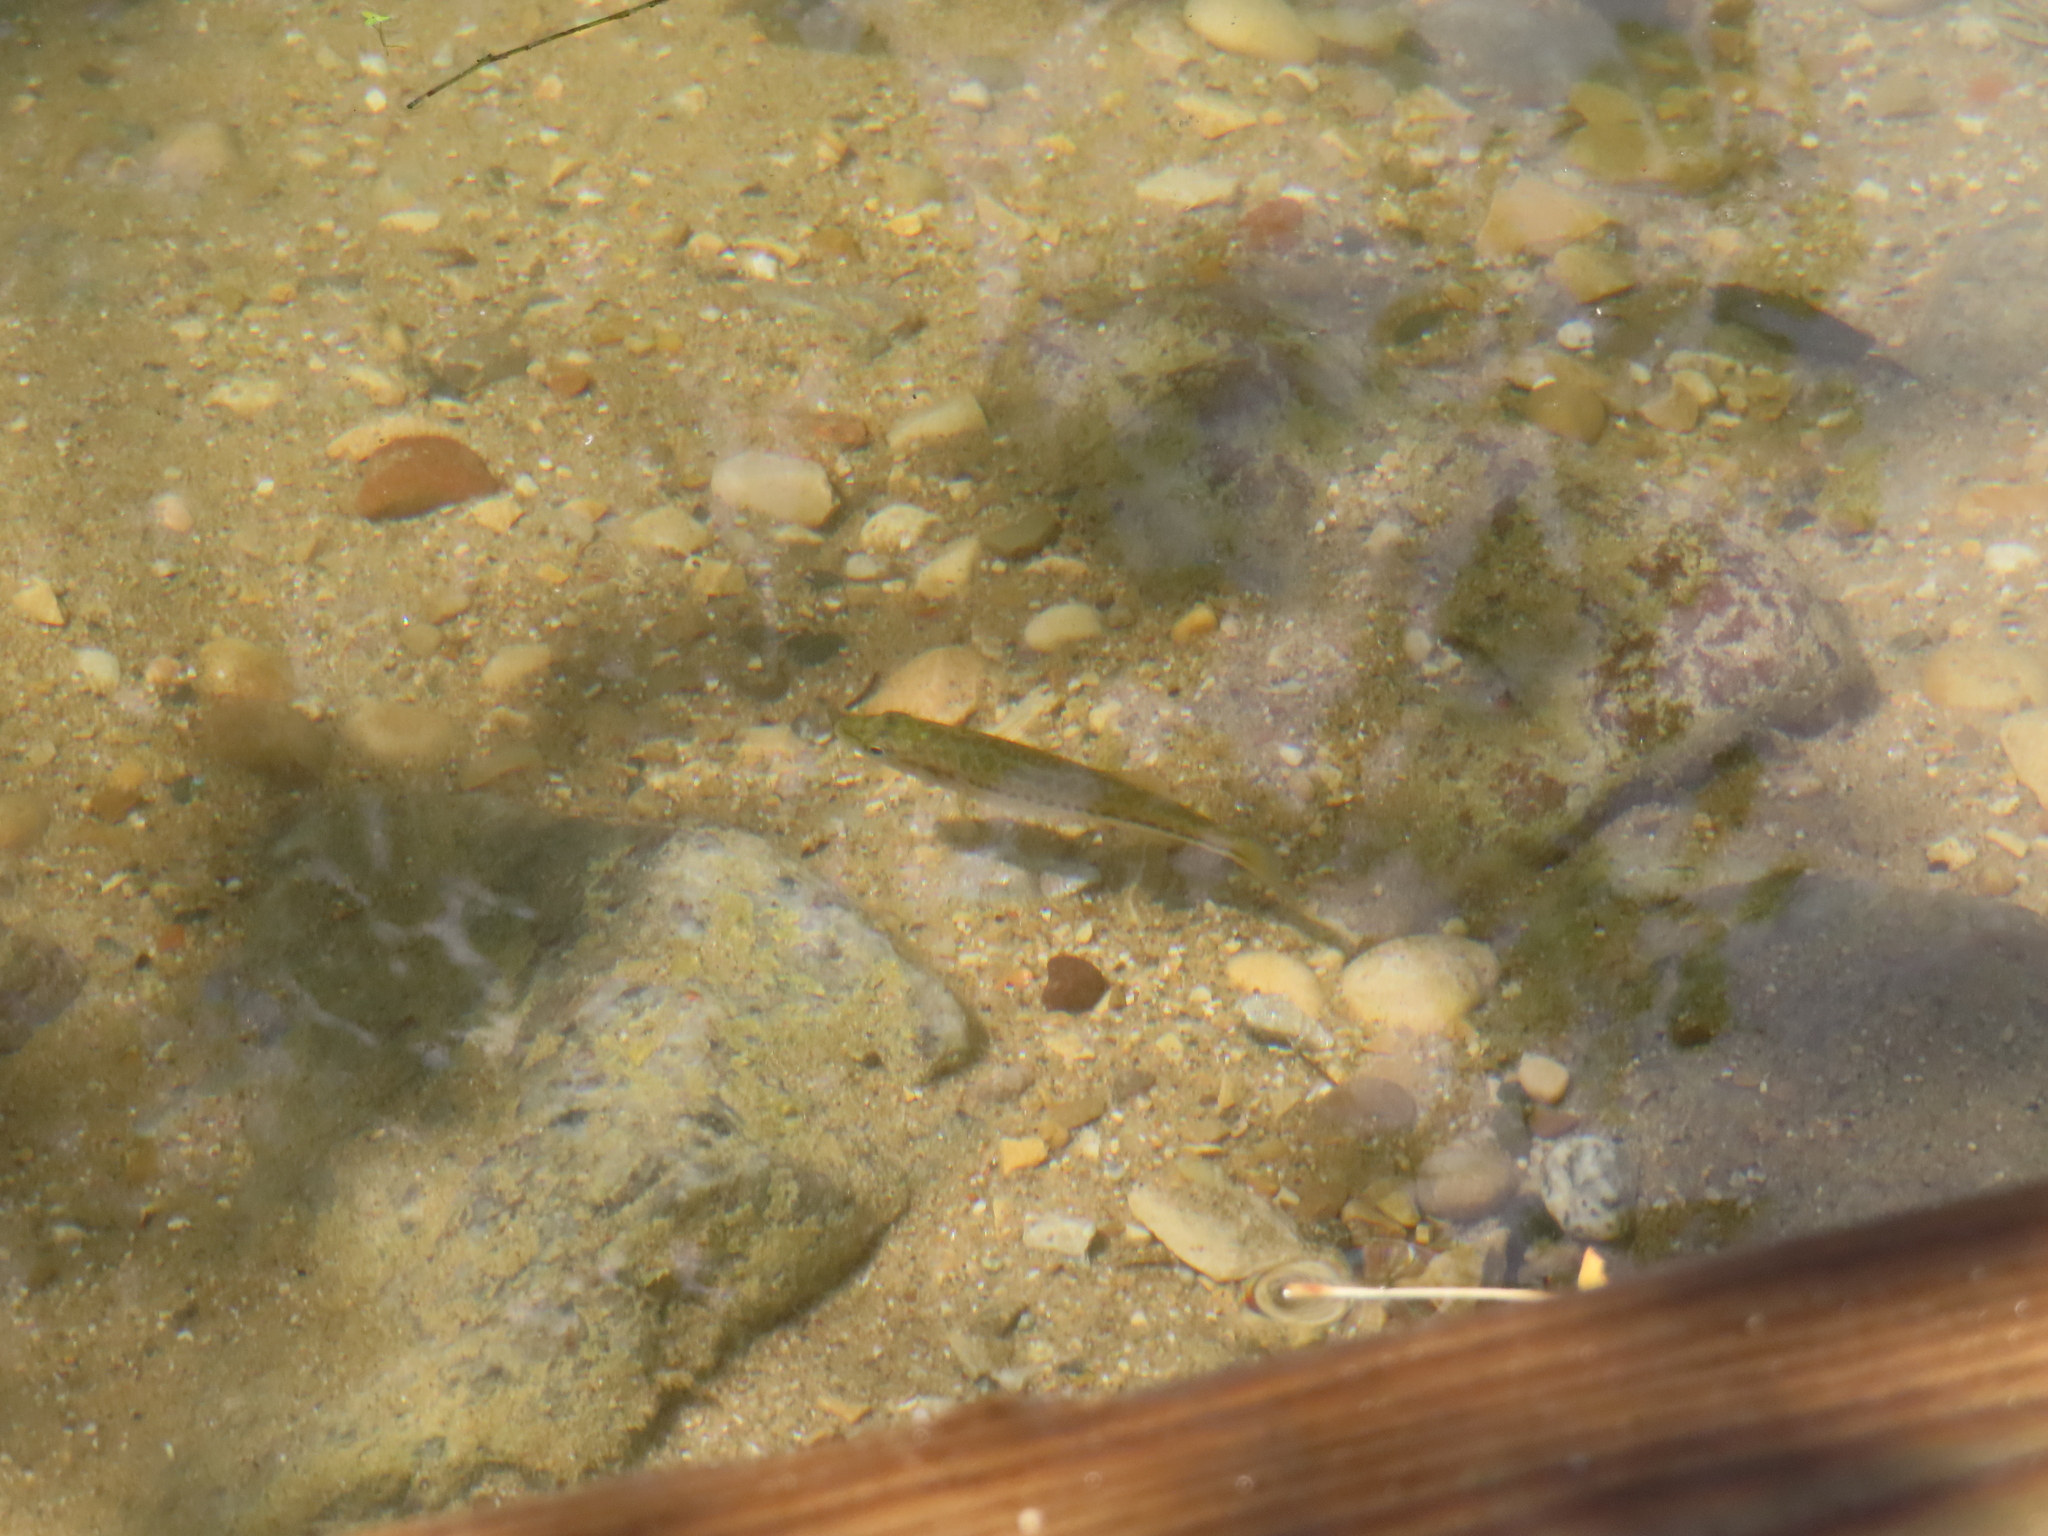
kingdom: Animalia
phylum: Chordata
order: Perciformes
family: Centrarchidae
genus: Micropterus
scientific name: Micropterus
